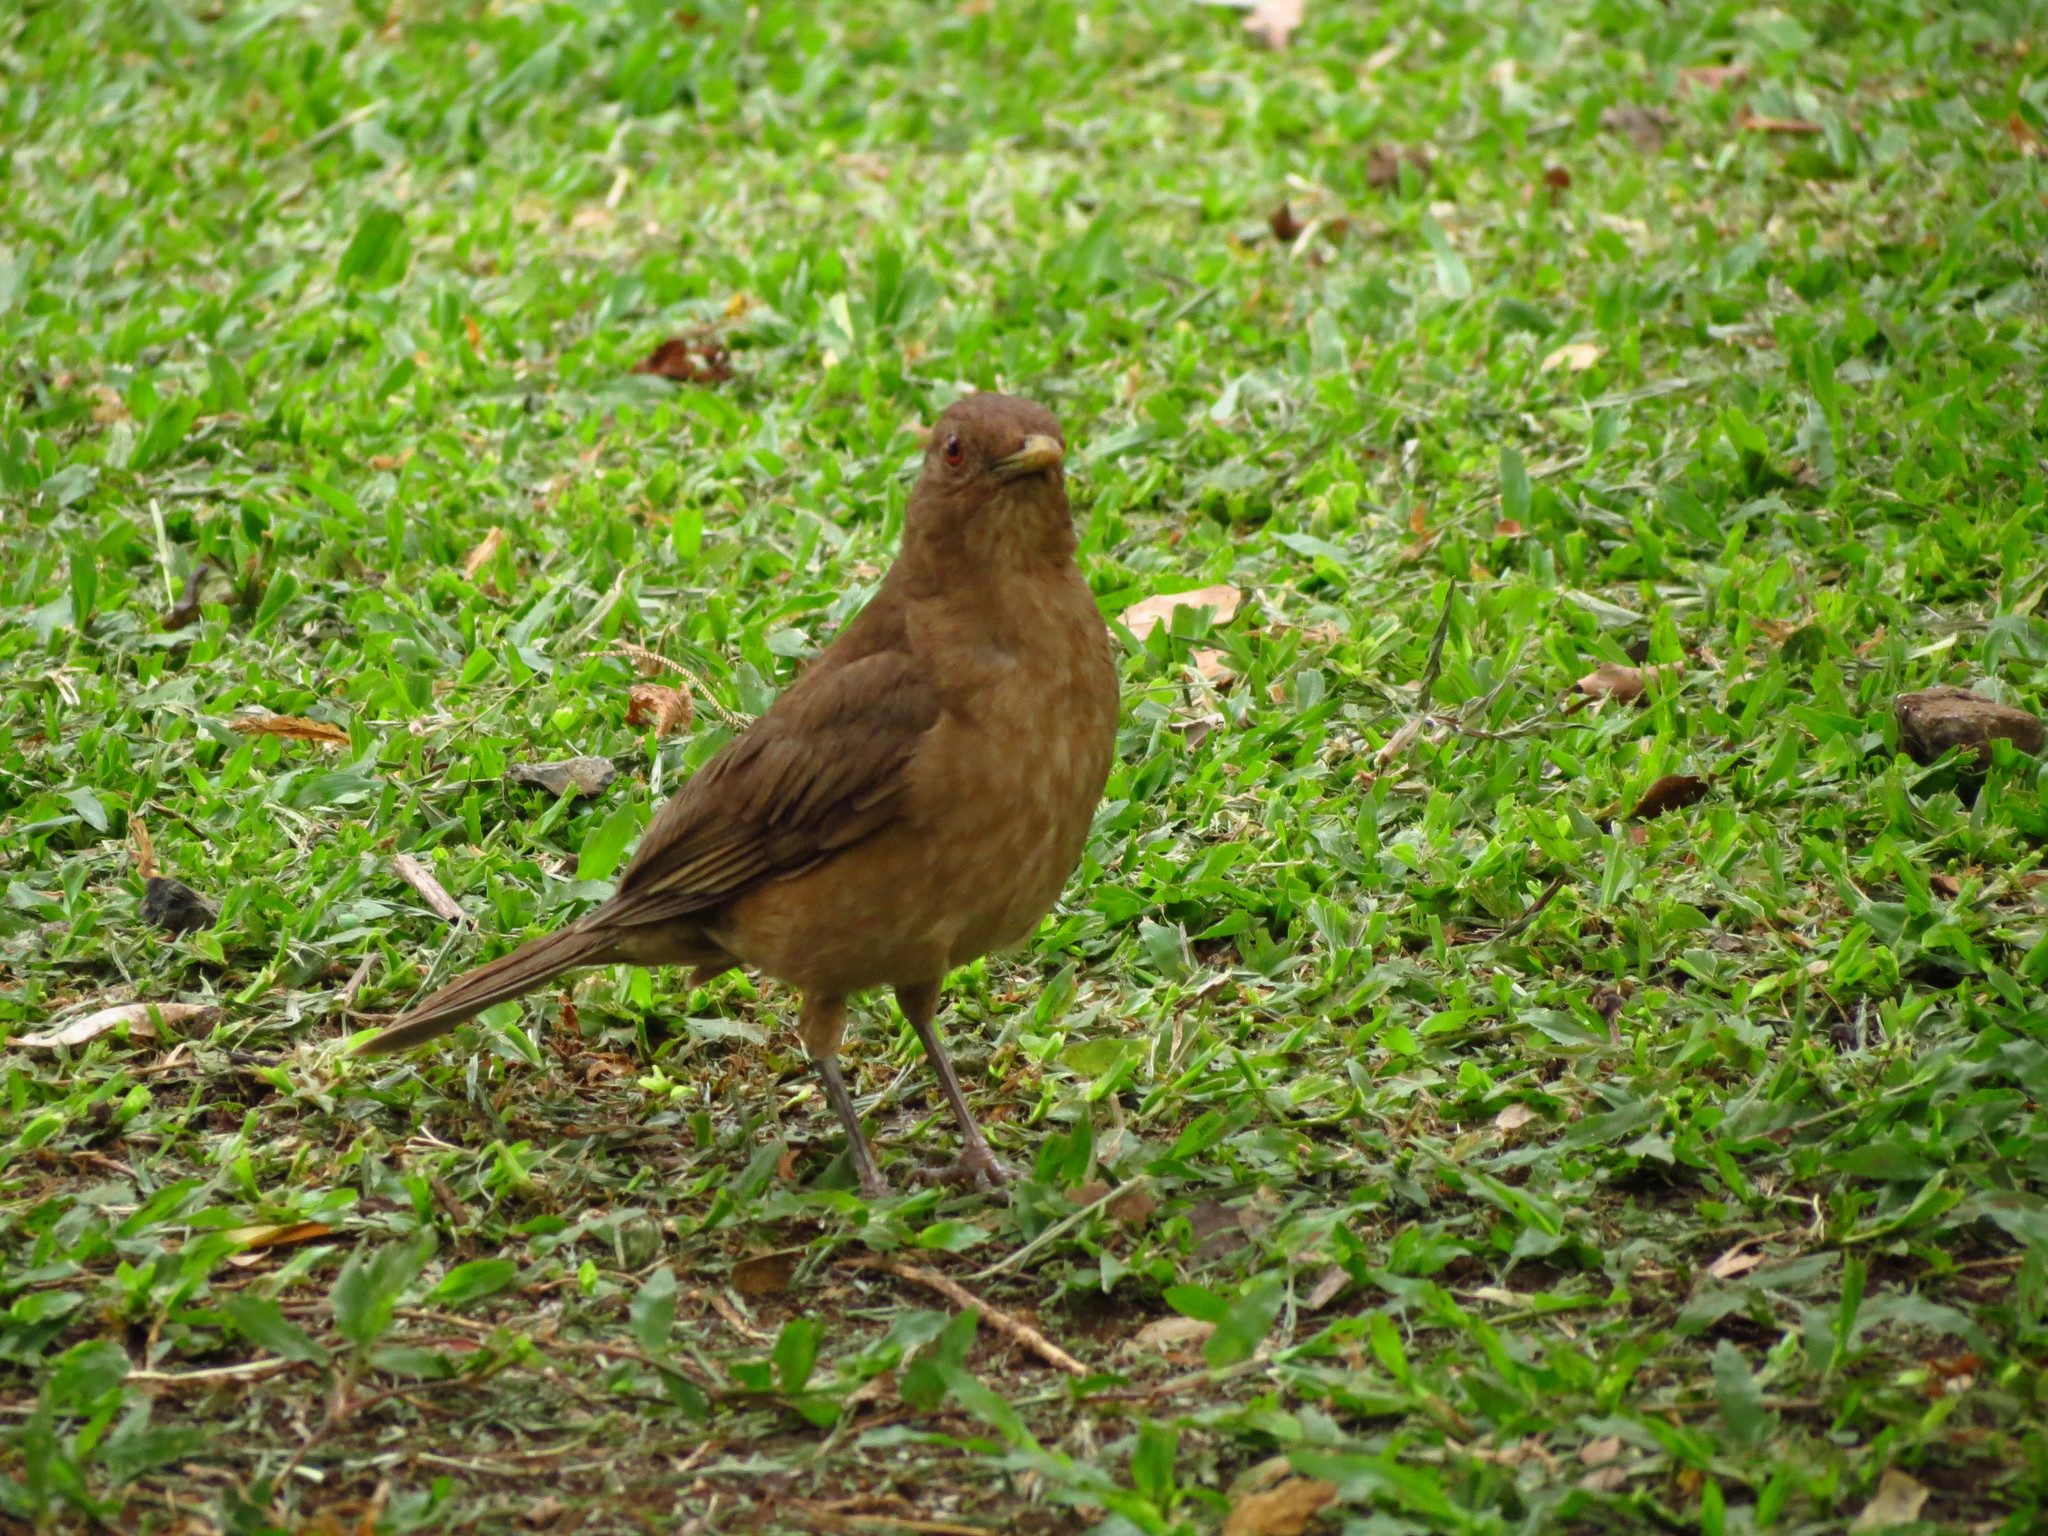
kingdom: Animalia
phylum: Chordata
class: Aves
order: Passeriformes
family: Turdidae
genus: Turdus
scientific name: Turdus grayi
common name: Clay-colored thrush
